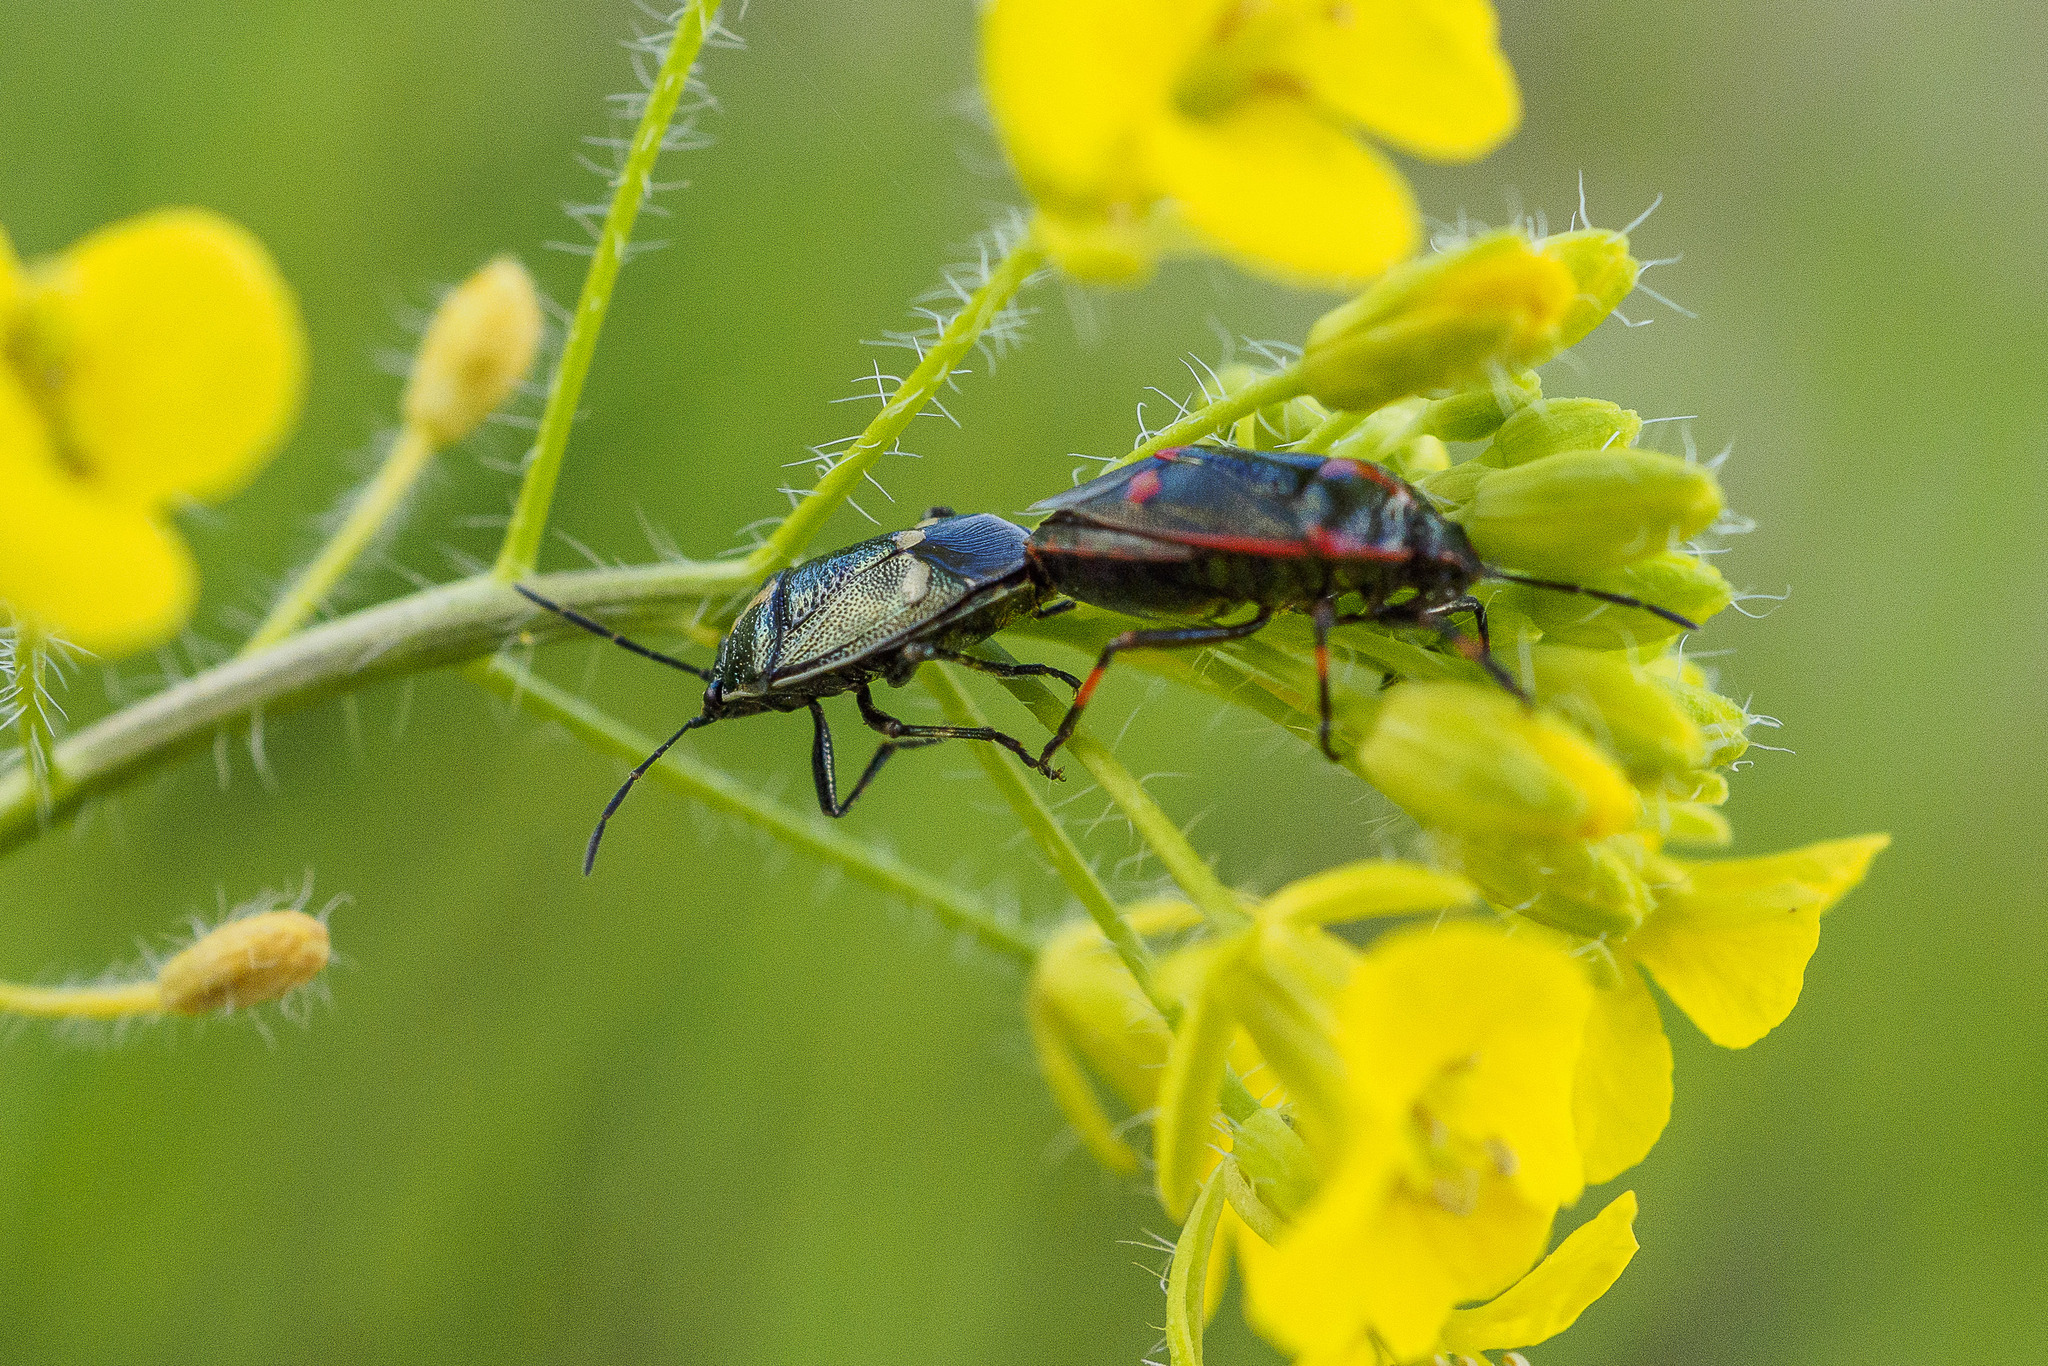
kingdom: Animalia
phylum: Arthropoda
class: Insecta
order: Hemiptera
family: Pentatomidae
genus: Eurydema
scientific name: Eurydema oleracea
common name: Cabbage bug
